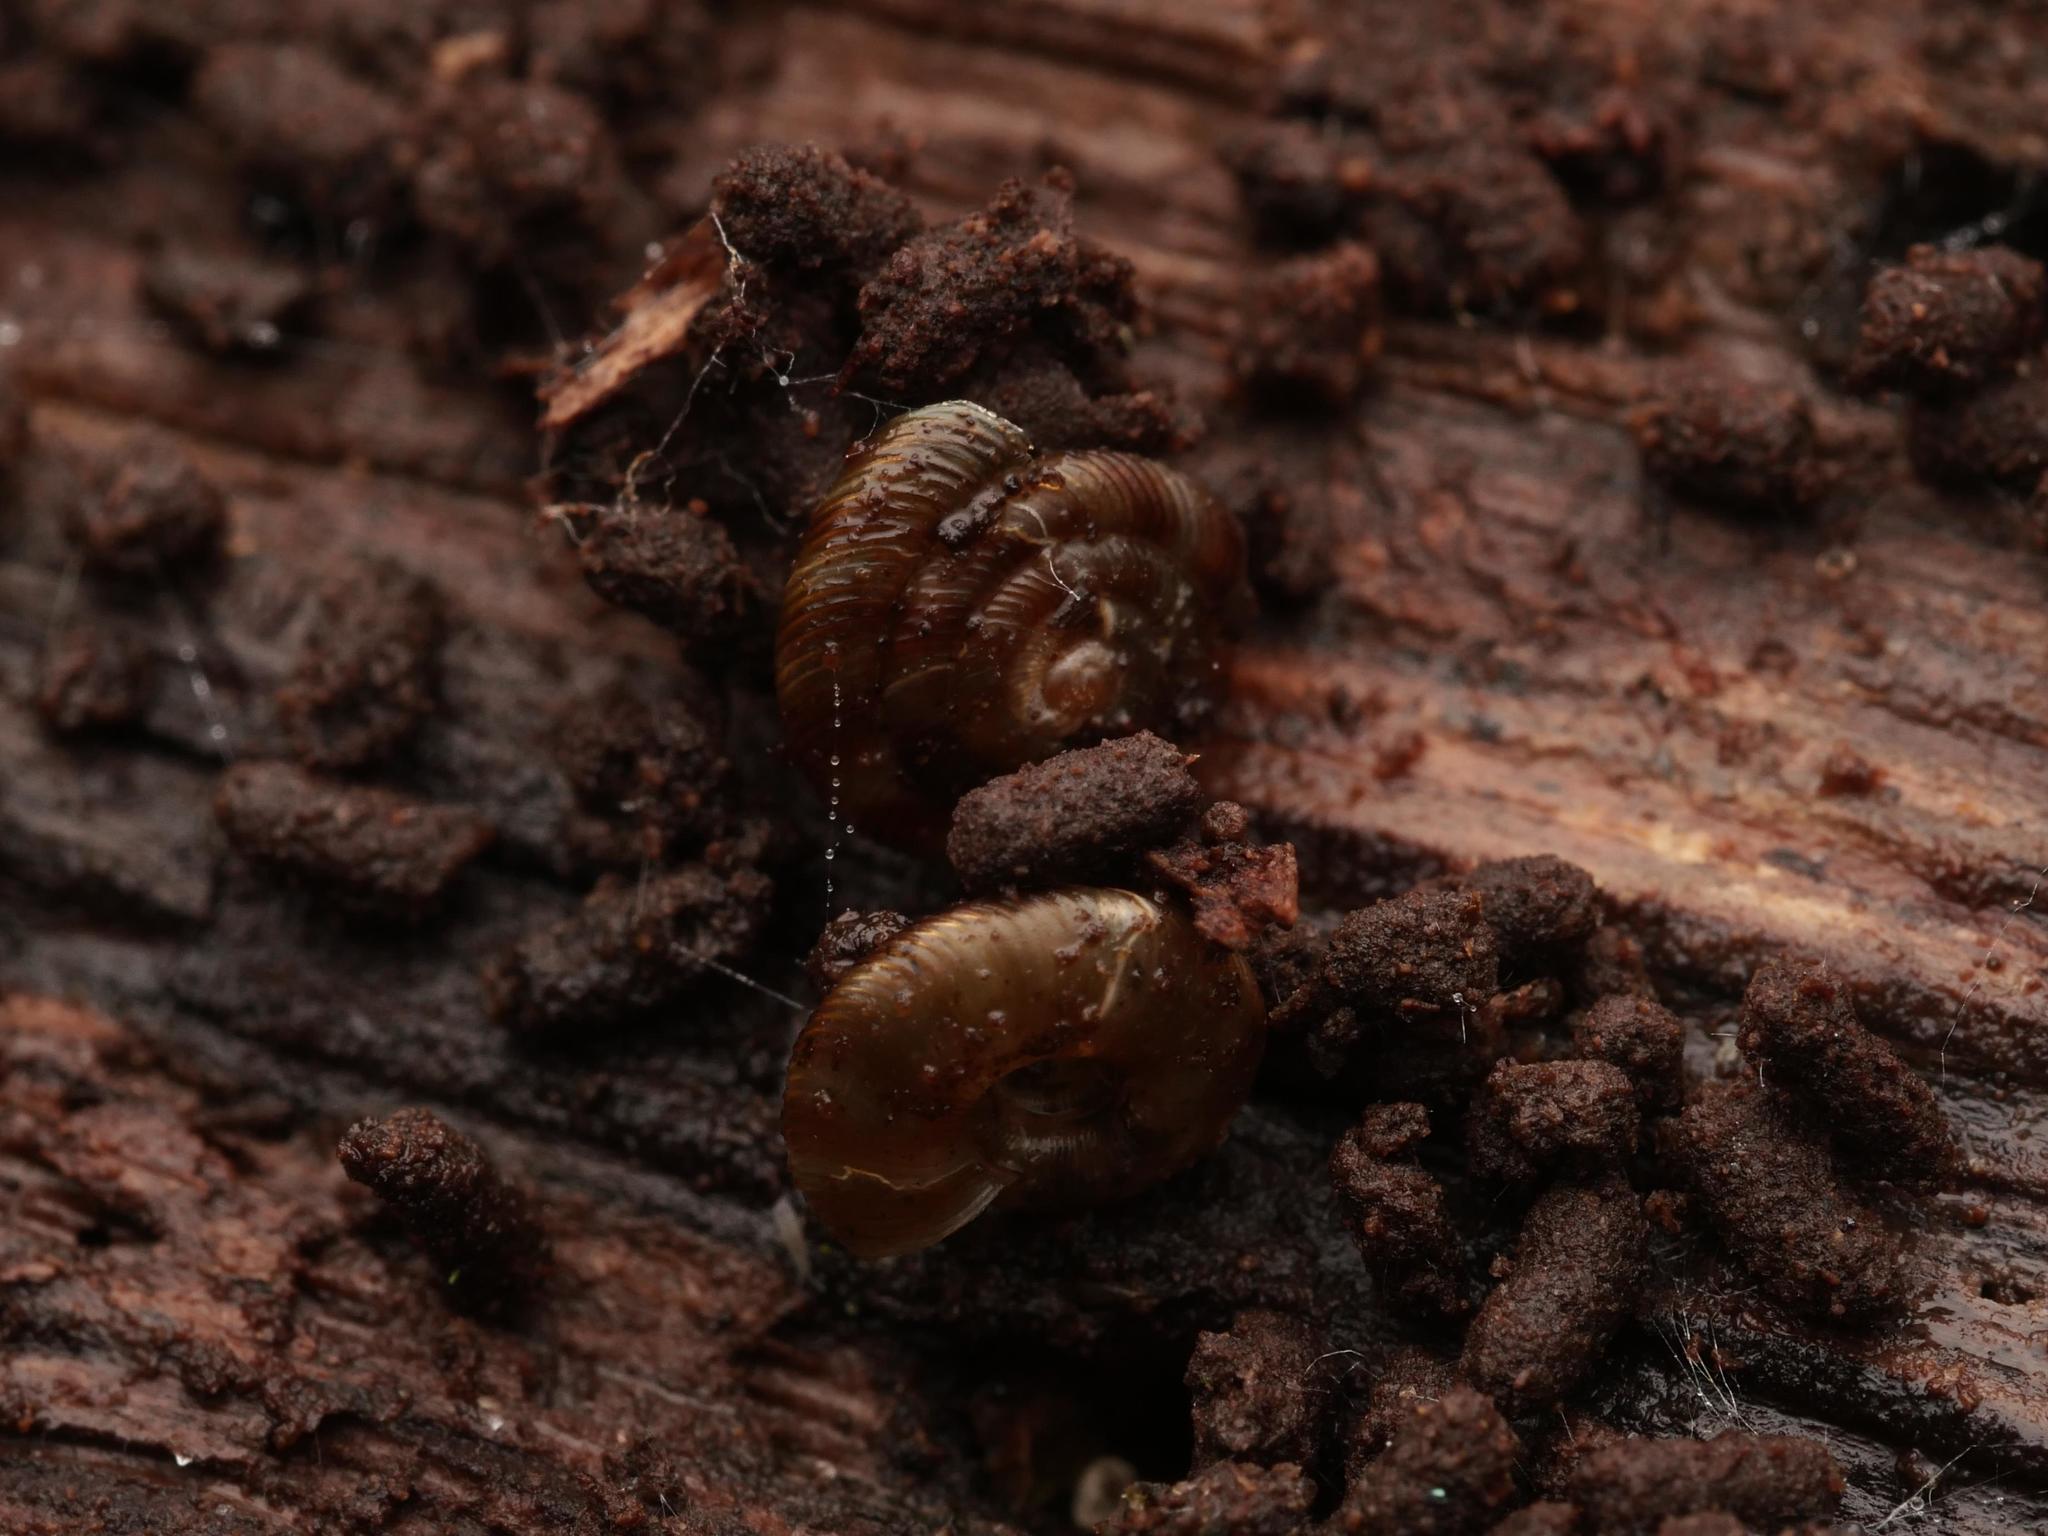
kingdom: Animalia
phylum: Mollusca
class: Gastropoda
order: Stylommatophora
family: Discidae
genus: Discus
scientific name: Discus rotundatus
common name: Rounded snail
